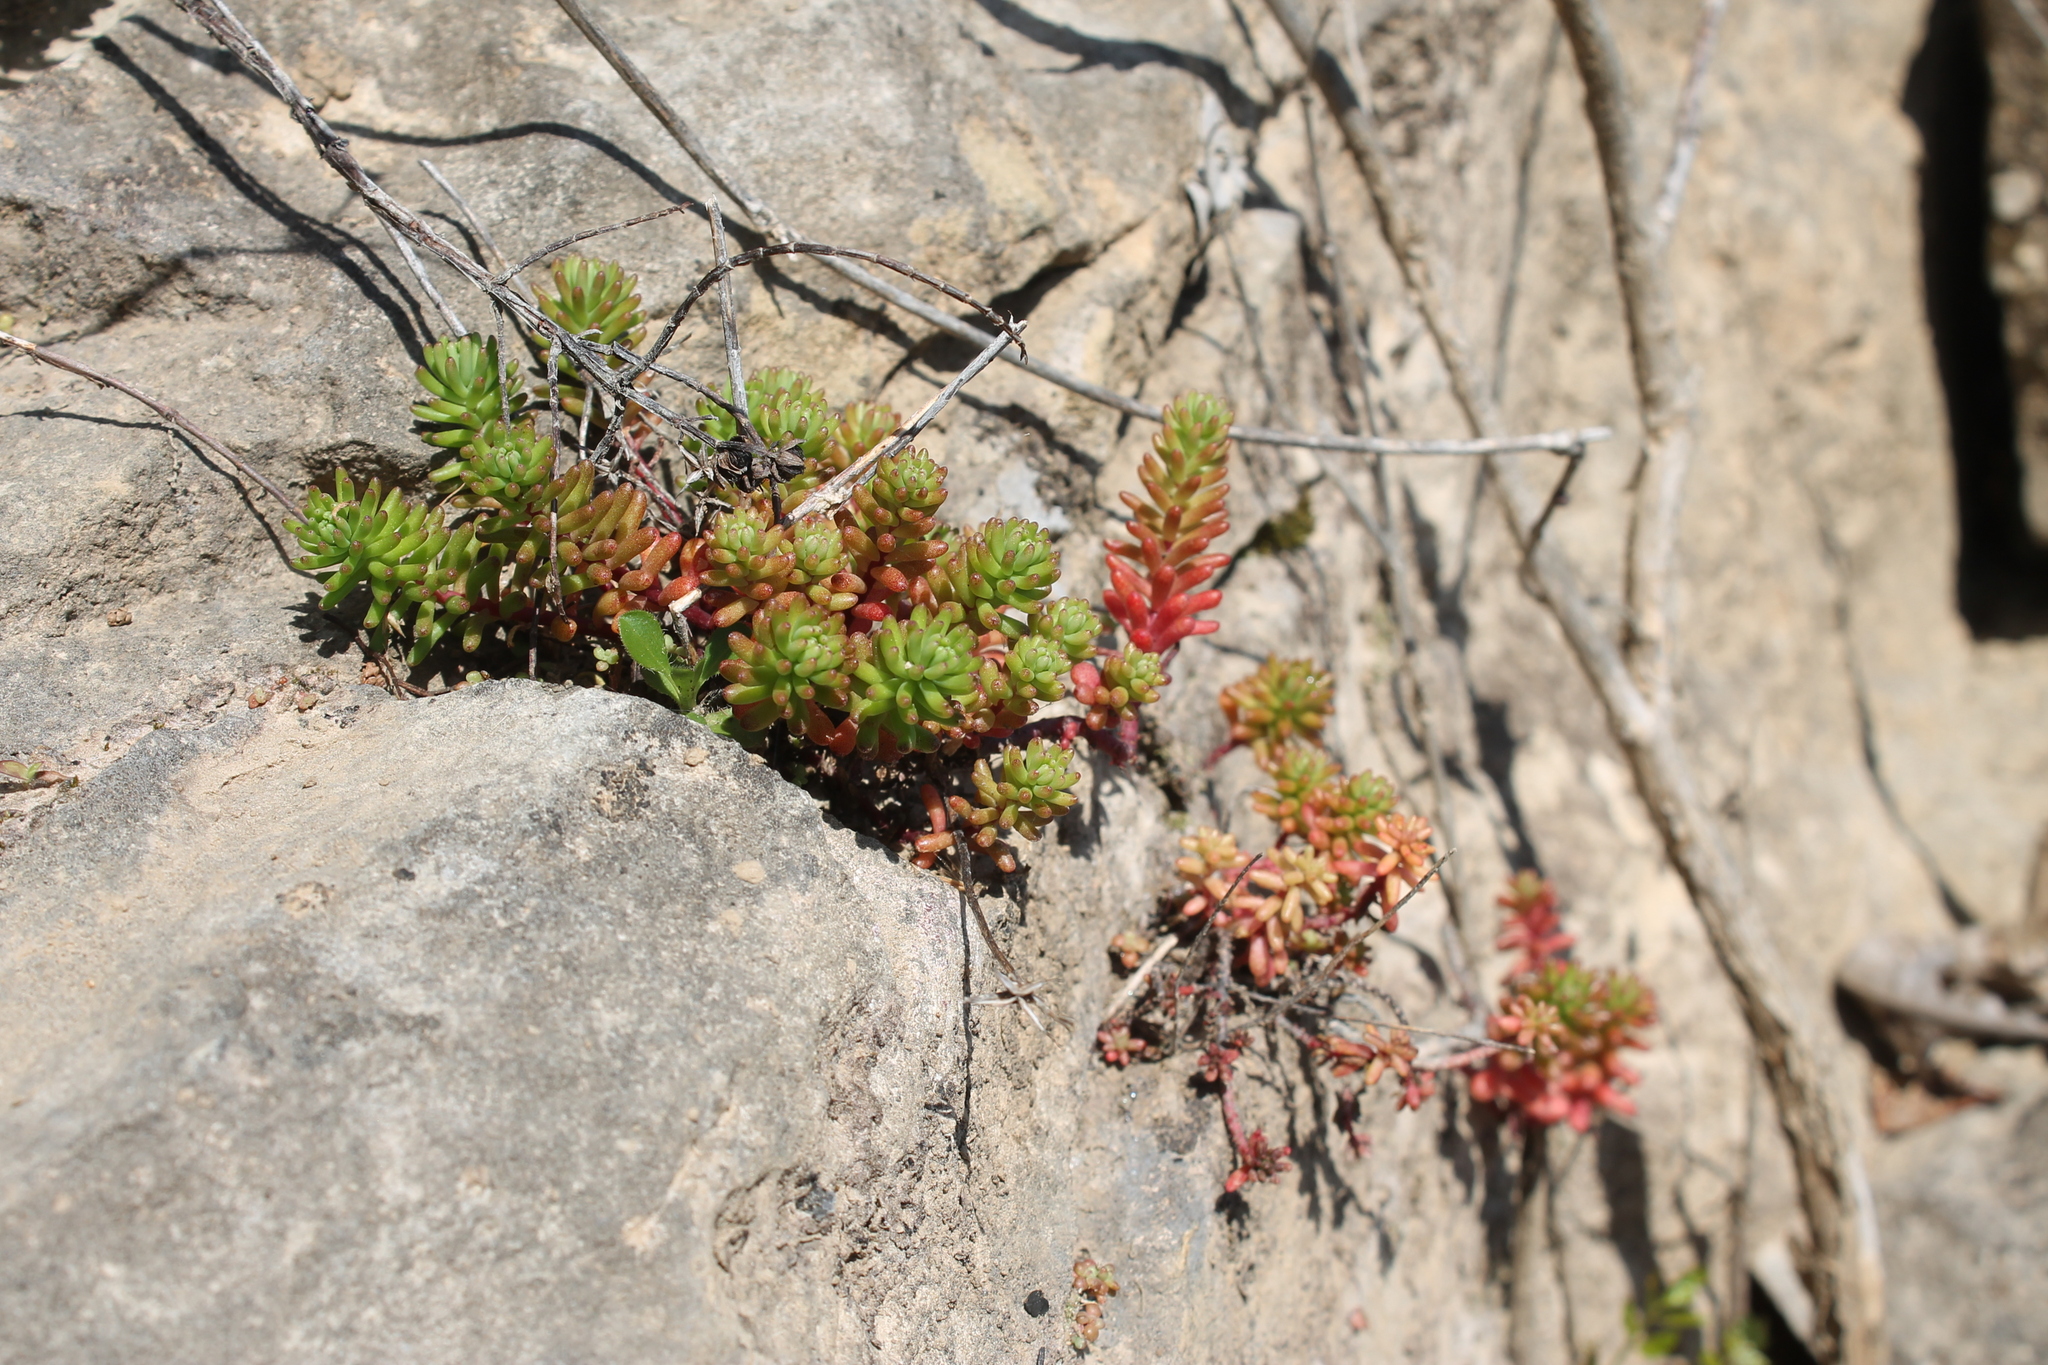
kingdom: Plantae
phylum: Tracheophyta
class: Magnoliopsida
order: Saxifragales
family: Crassulaceae
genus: Sedum
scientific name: Sedum pulchellum
